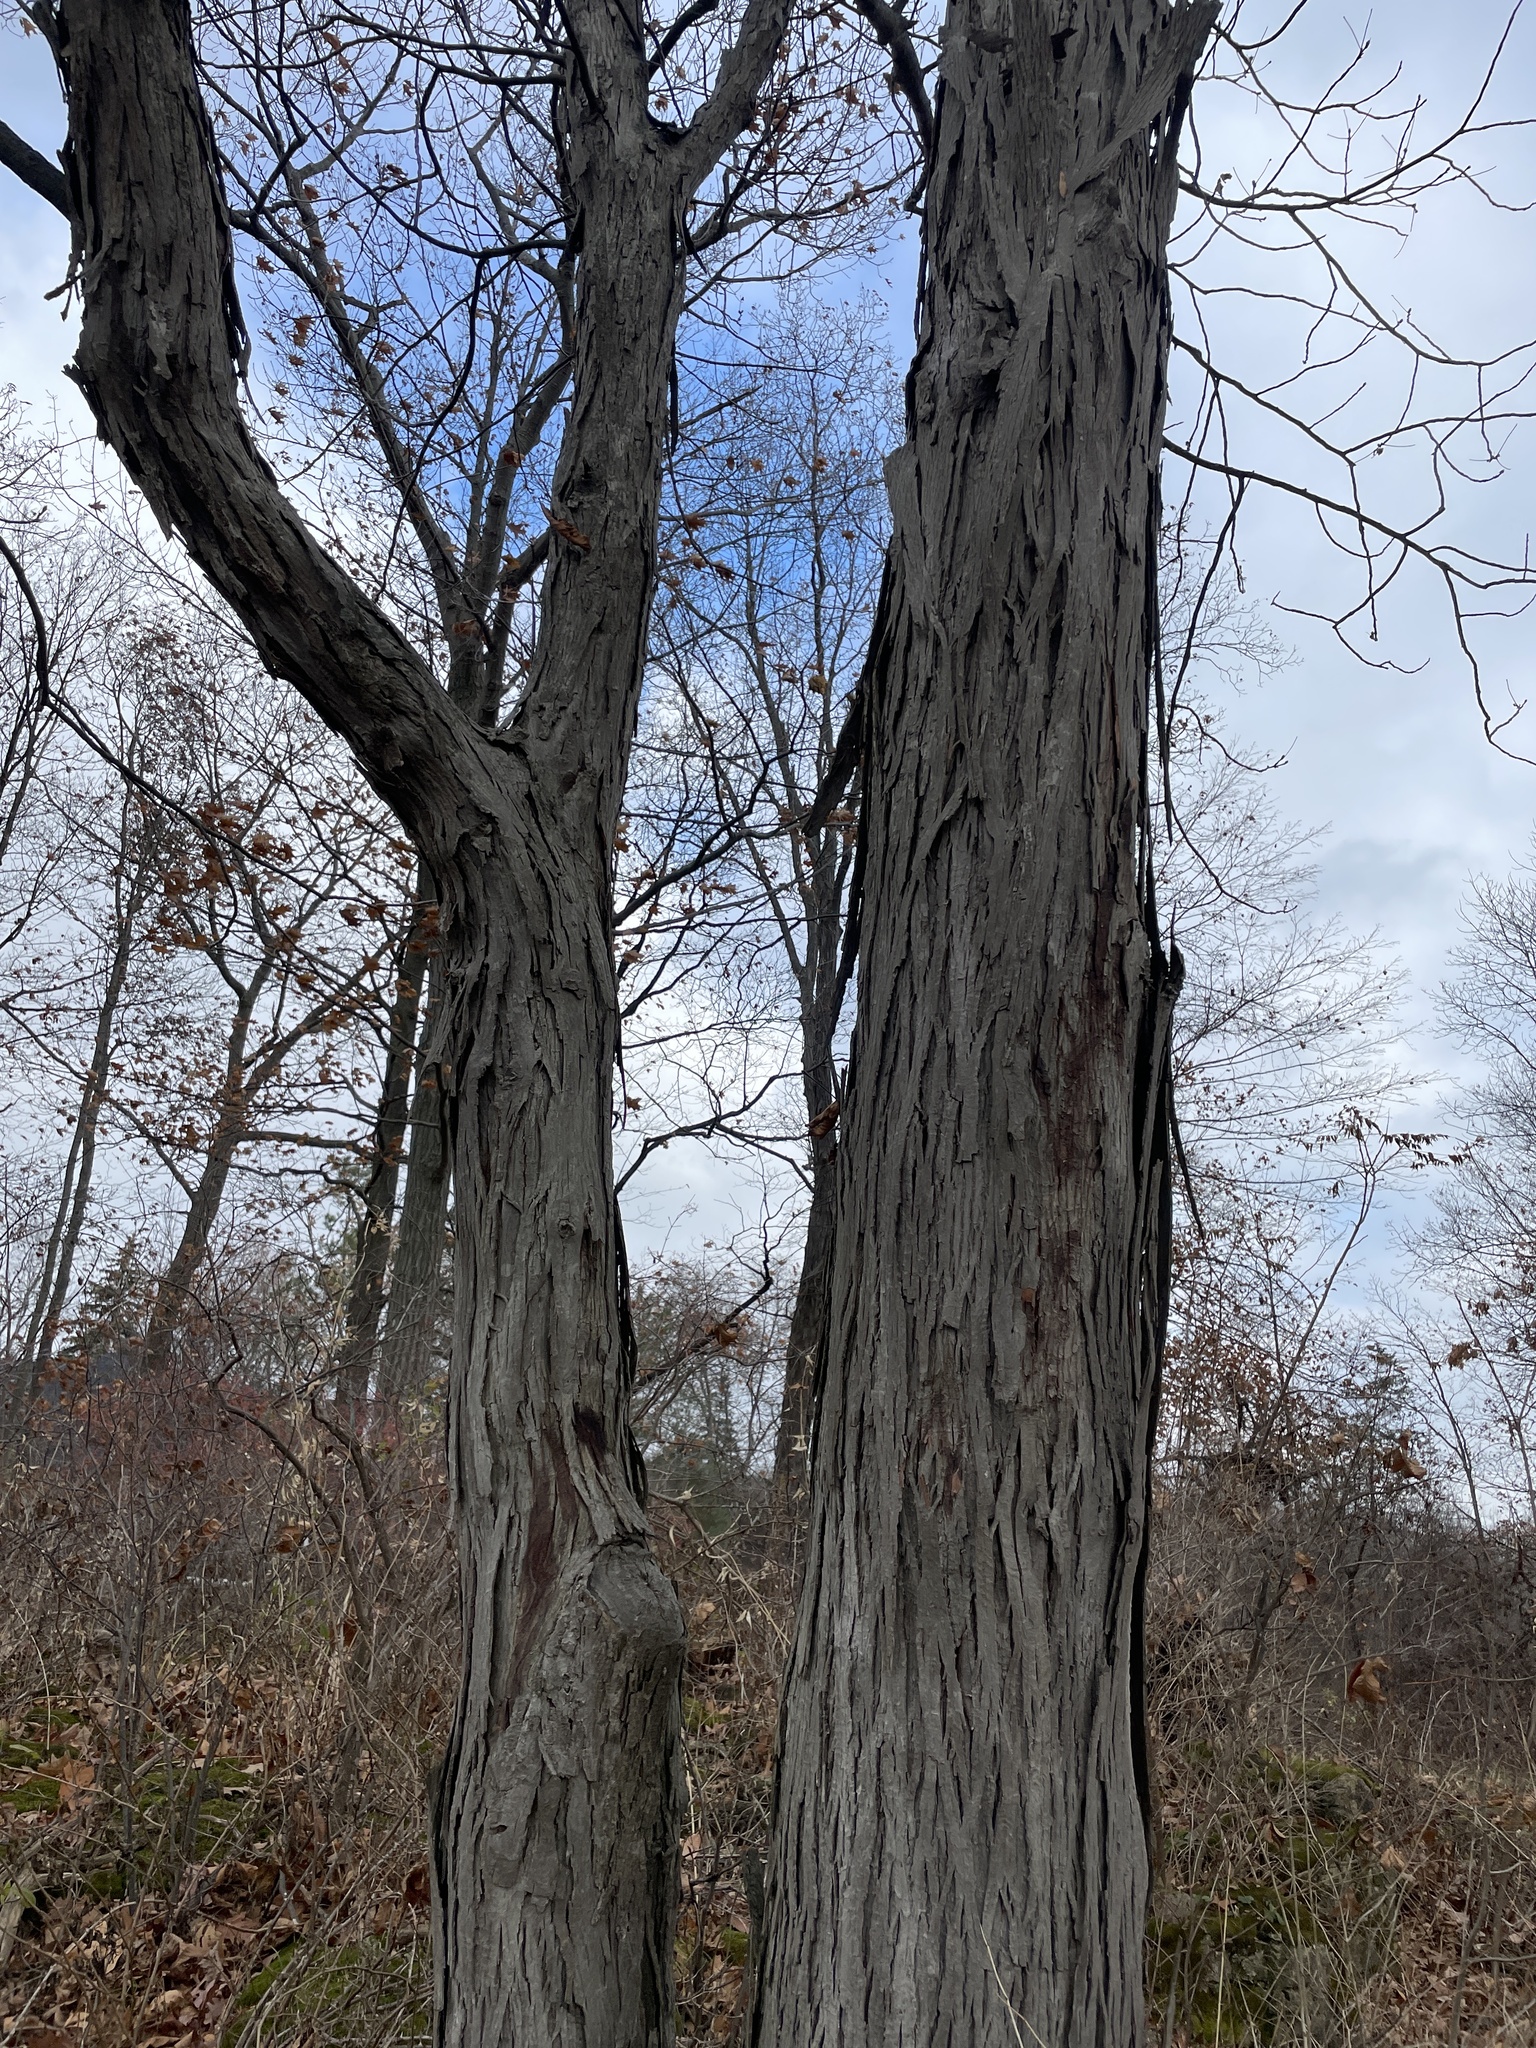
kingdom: Plantae
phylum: Tracheophyta
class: Magnoliopsida
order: Fagales
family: Juglandaceae
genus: Carya
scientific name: Carya ovata
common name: Shagbark hickory
